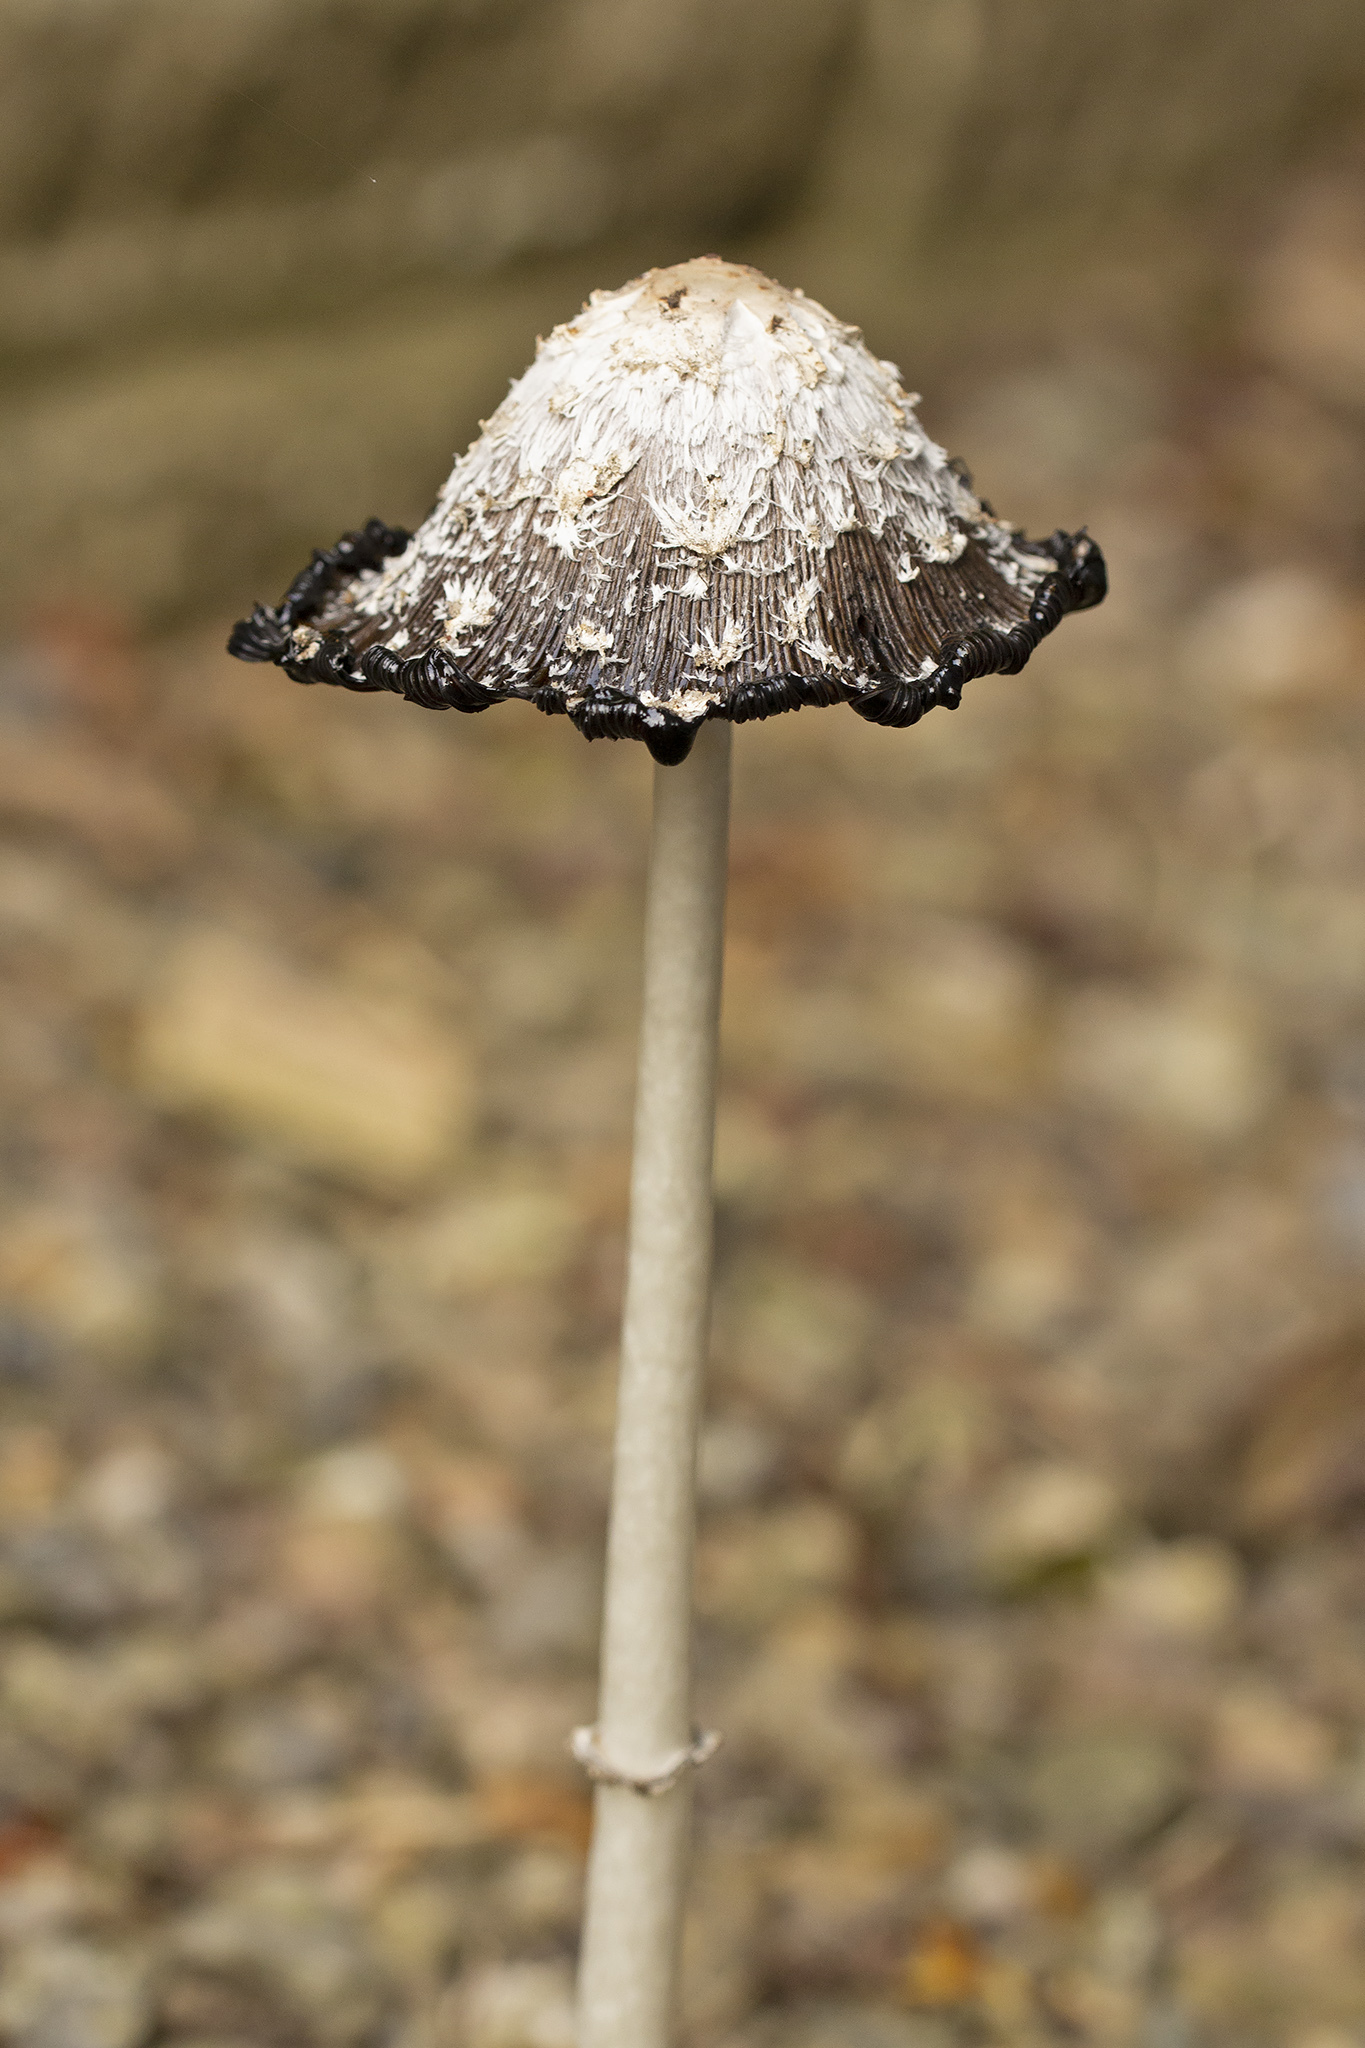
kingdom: Fungi
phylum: Basidiomycota
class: Agaricomycetes
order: Agaricales
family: Agaricaceae
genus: Coprinus
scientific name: Coprinus comatus
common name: Lawyer's wig
